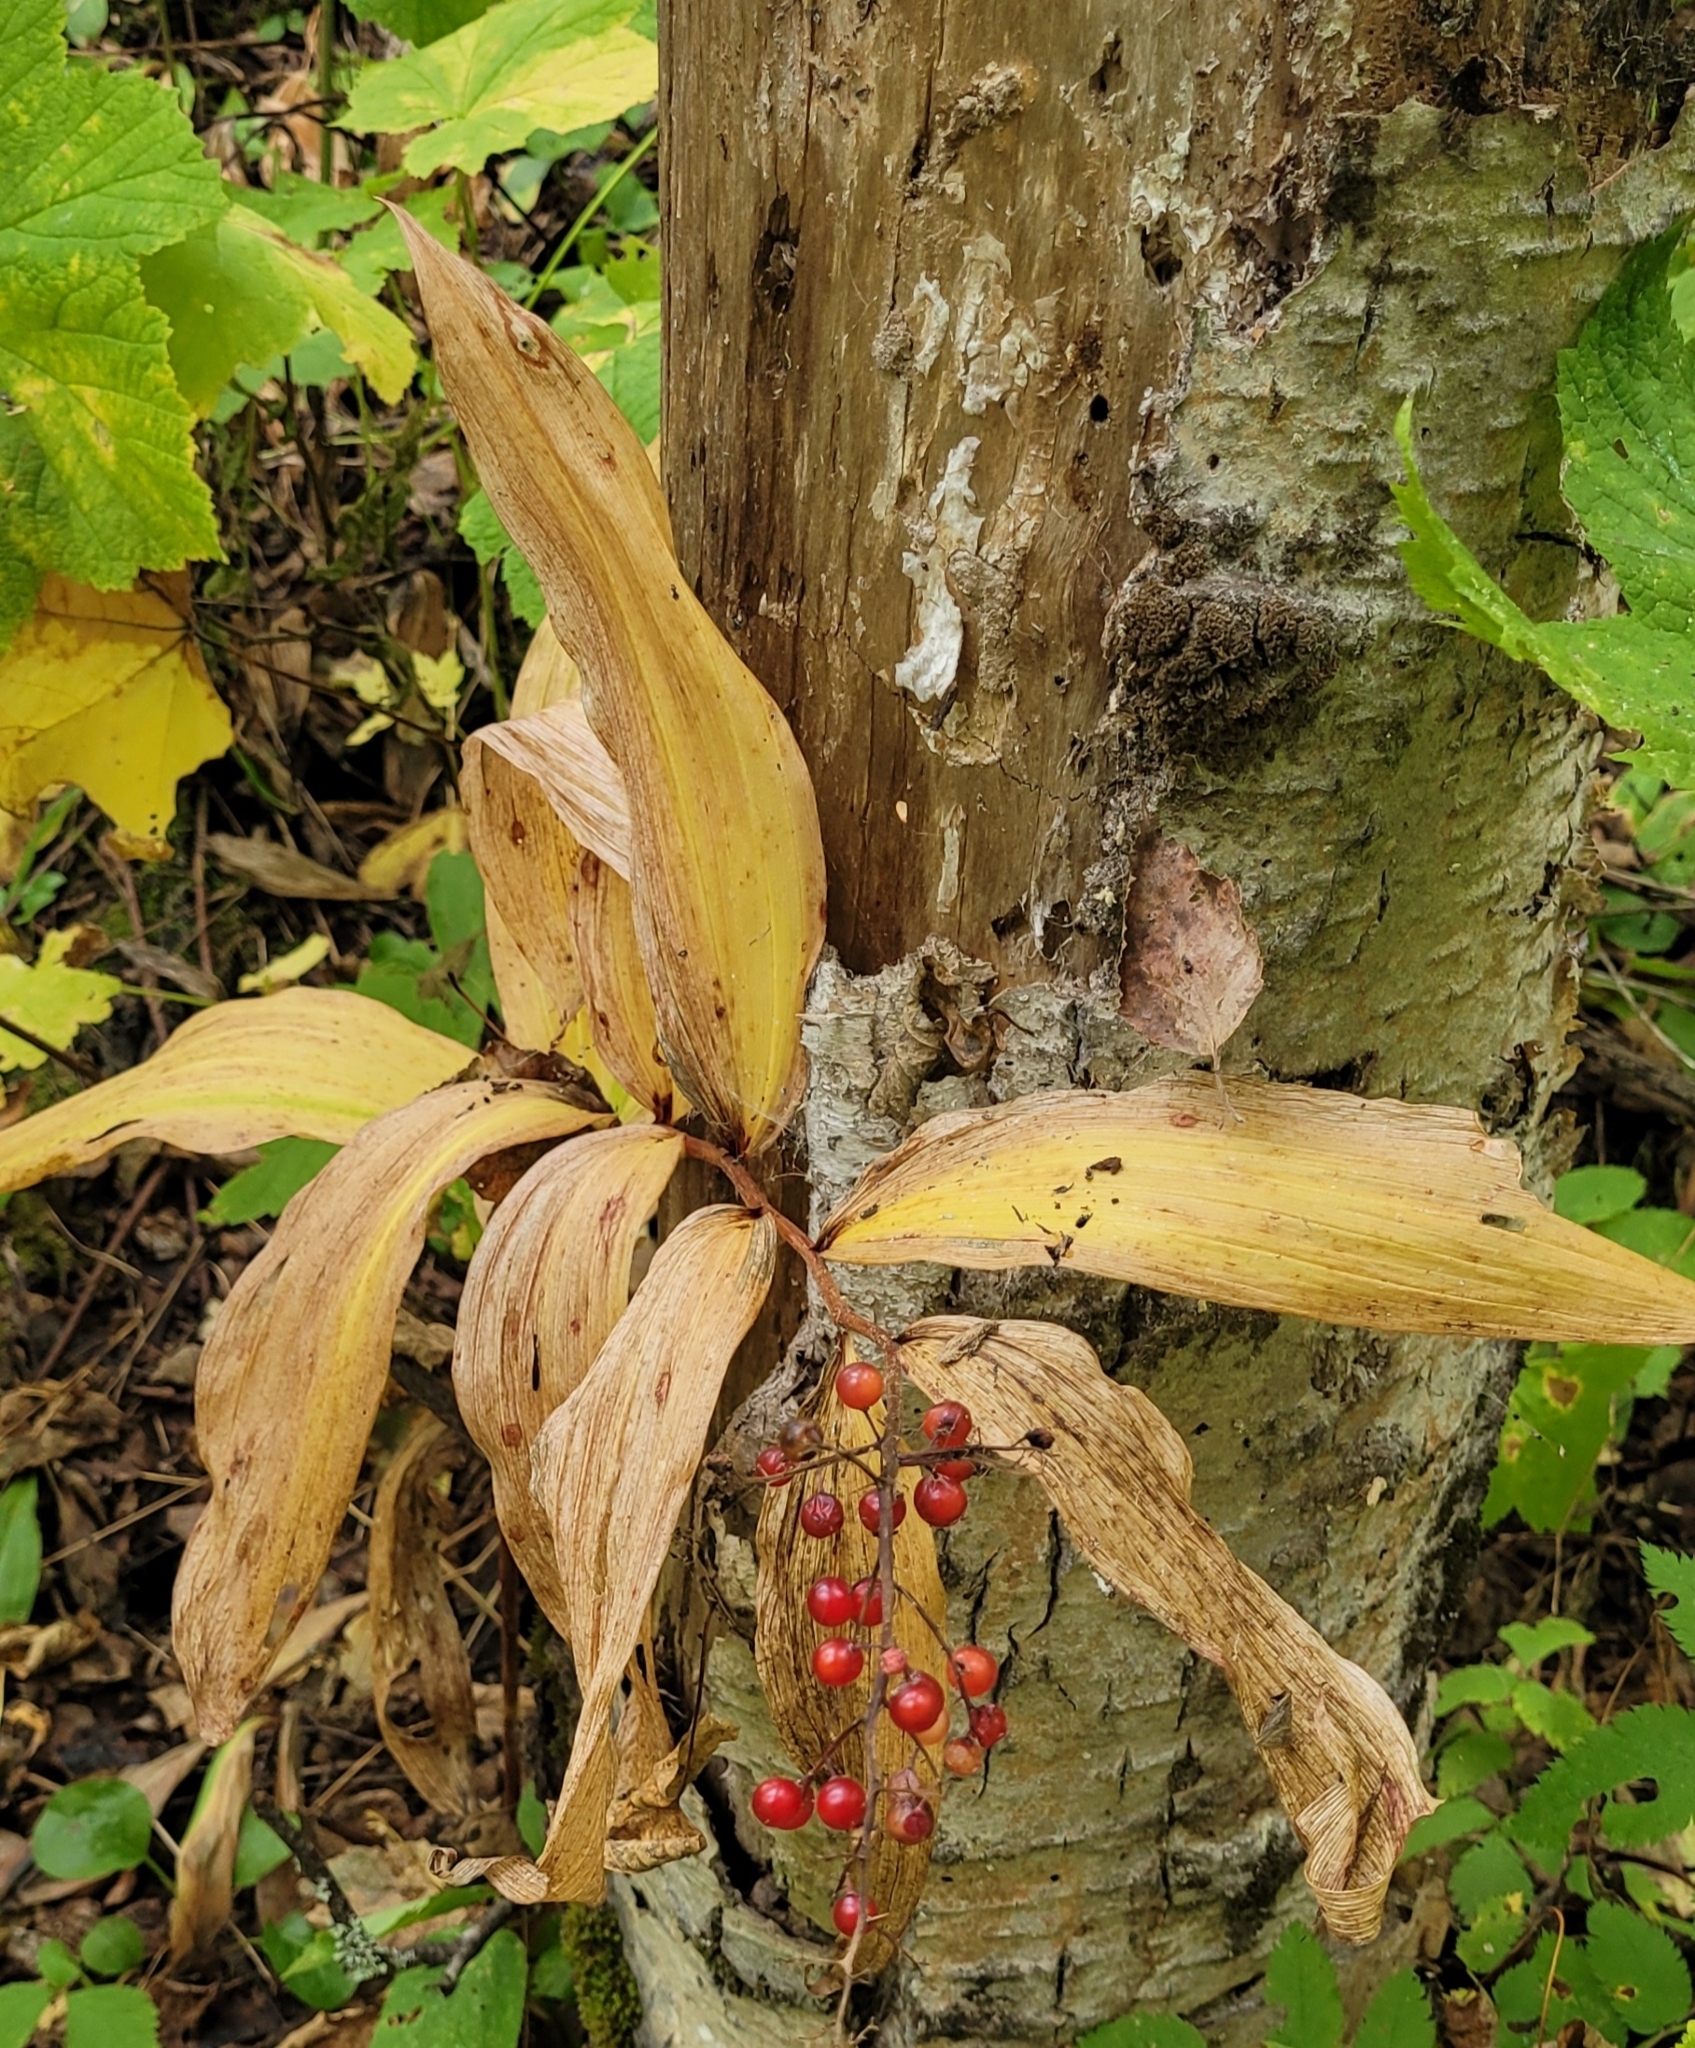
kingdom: Plantae
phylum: Tracheophyta
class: Liliopsida
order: Asparagales
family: Asparagaceae
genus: Maianthemum
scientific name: Maianthemum racemosum
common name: False spikenard
